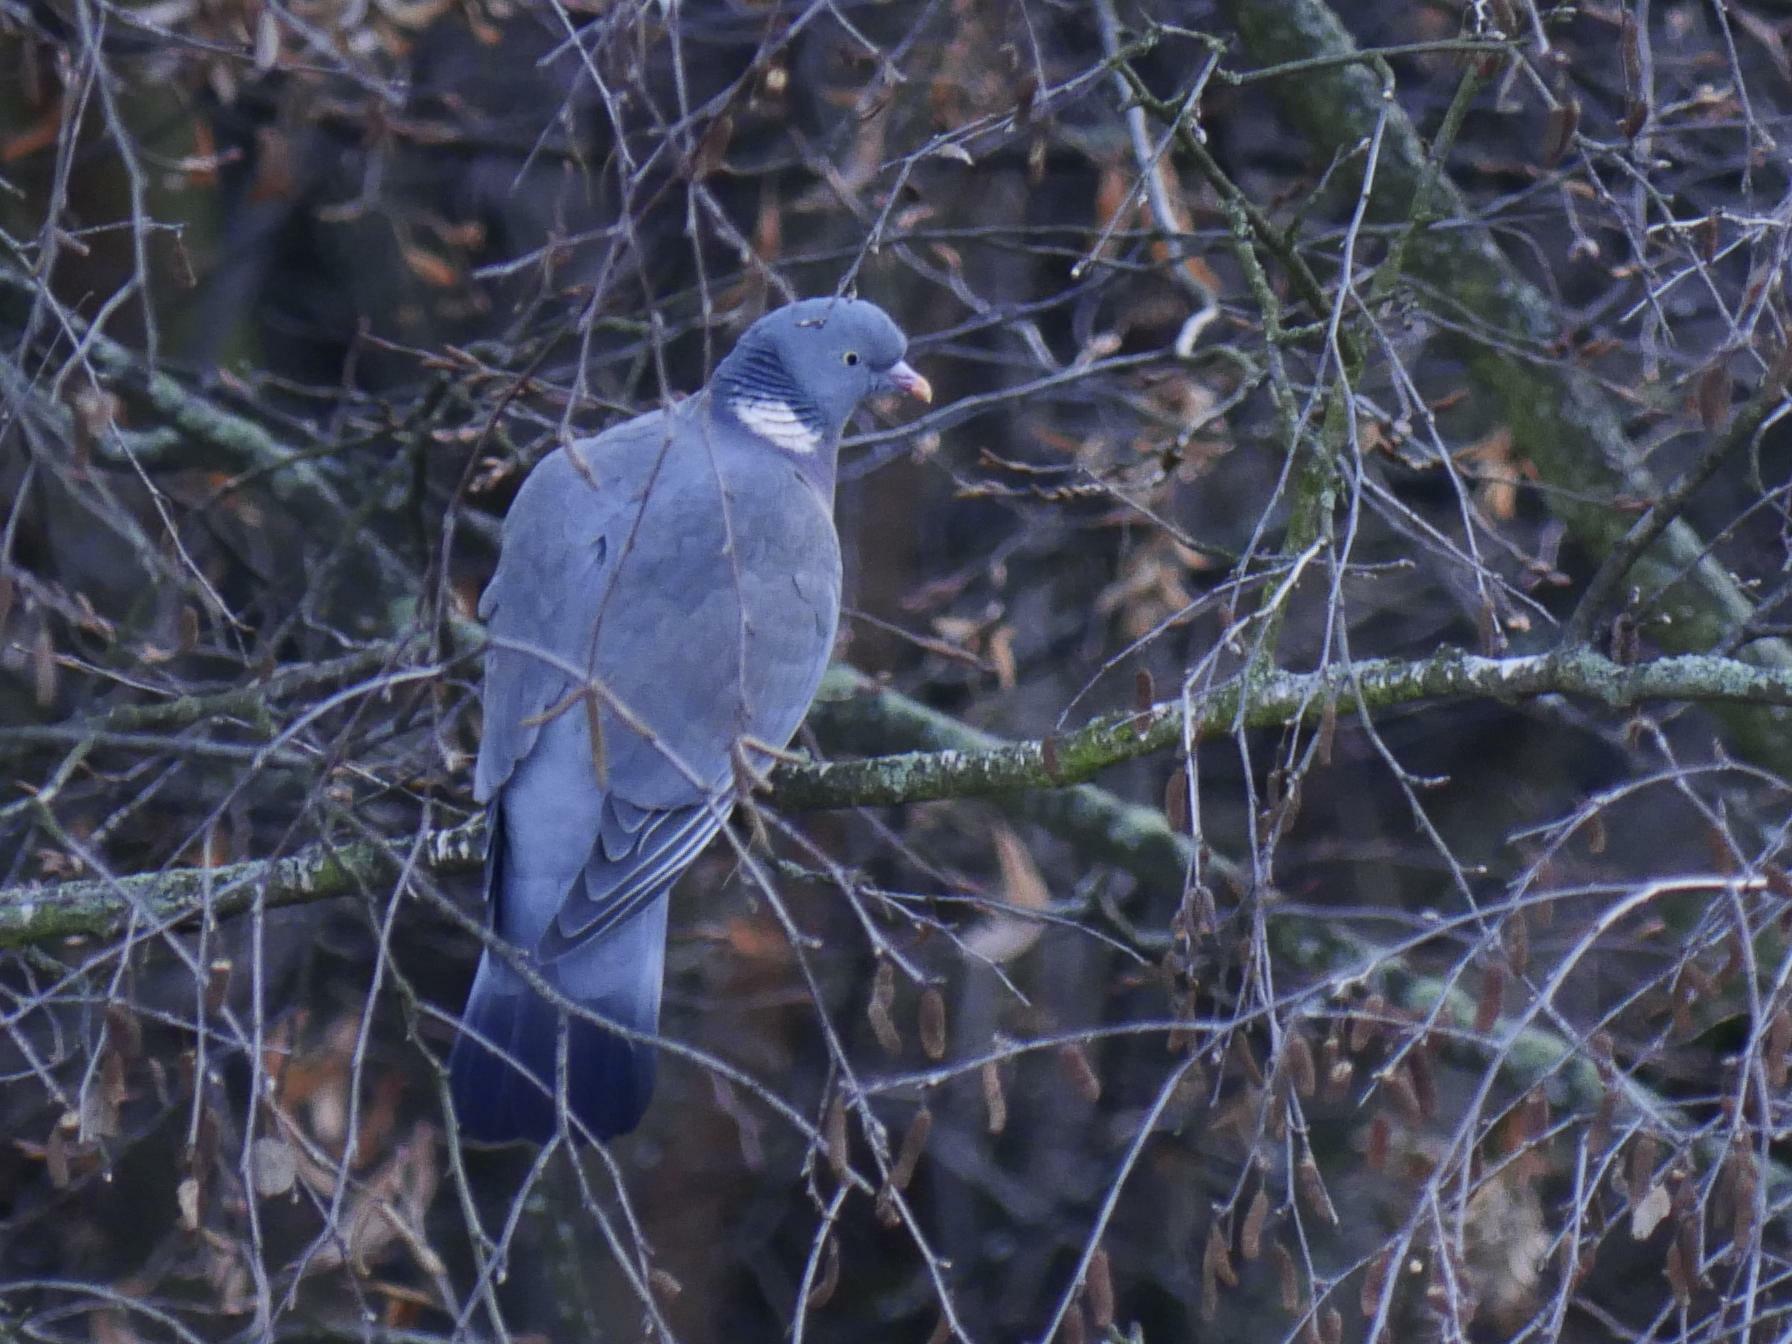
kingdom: Animalia
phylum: Chordata
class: Aves
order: Columbiformes
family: Columbidae
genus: Columba
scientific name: Columba palumbus
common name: Common wood pigeon
